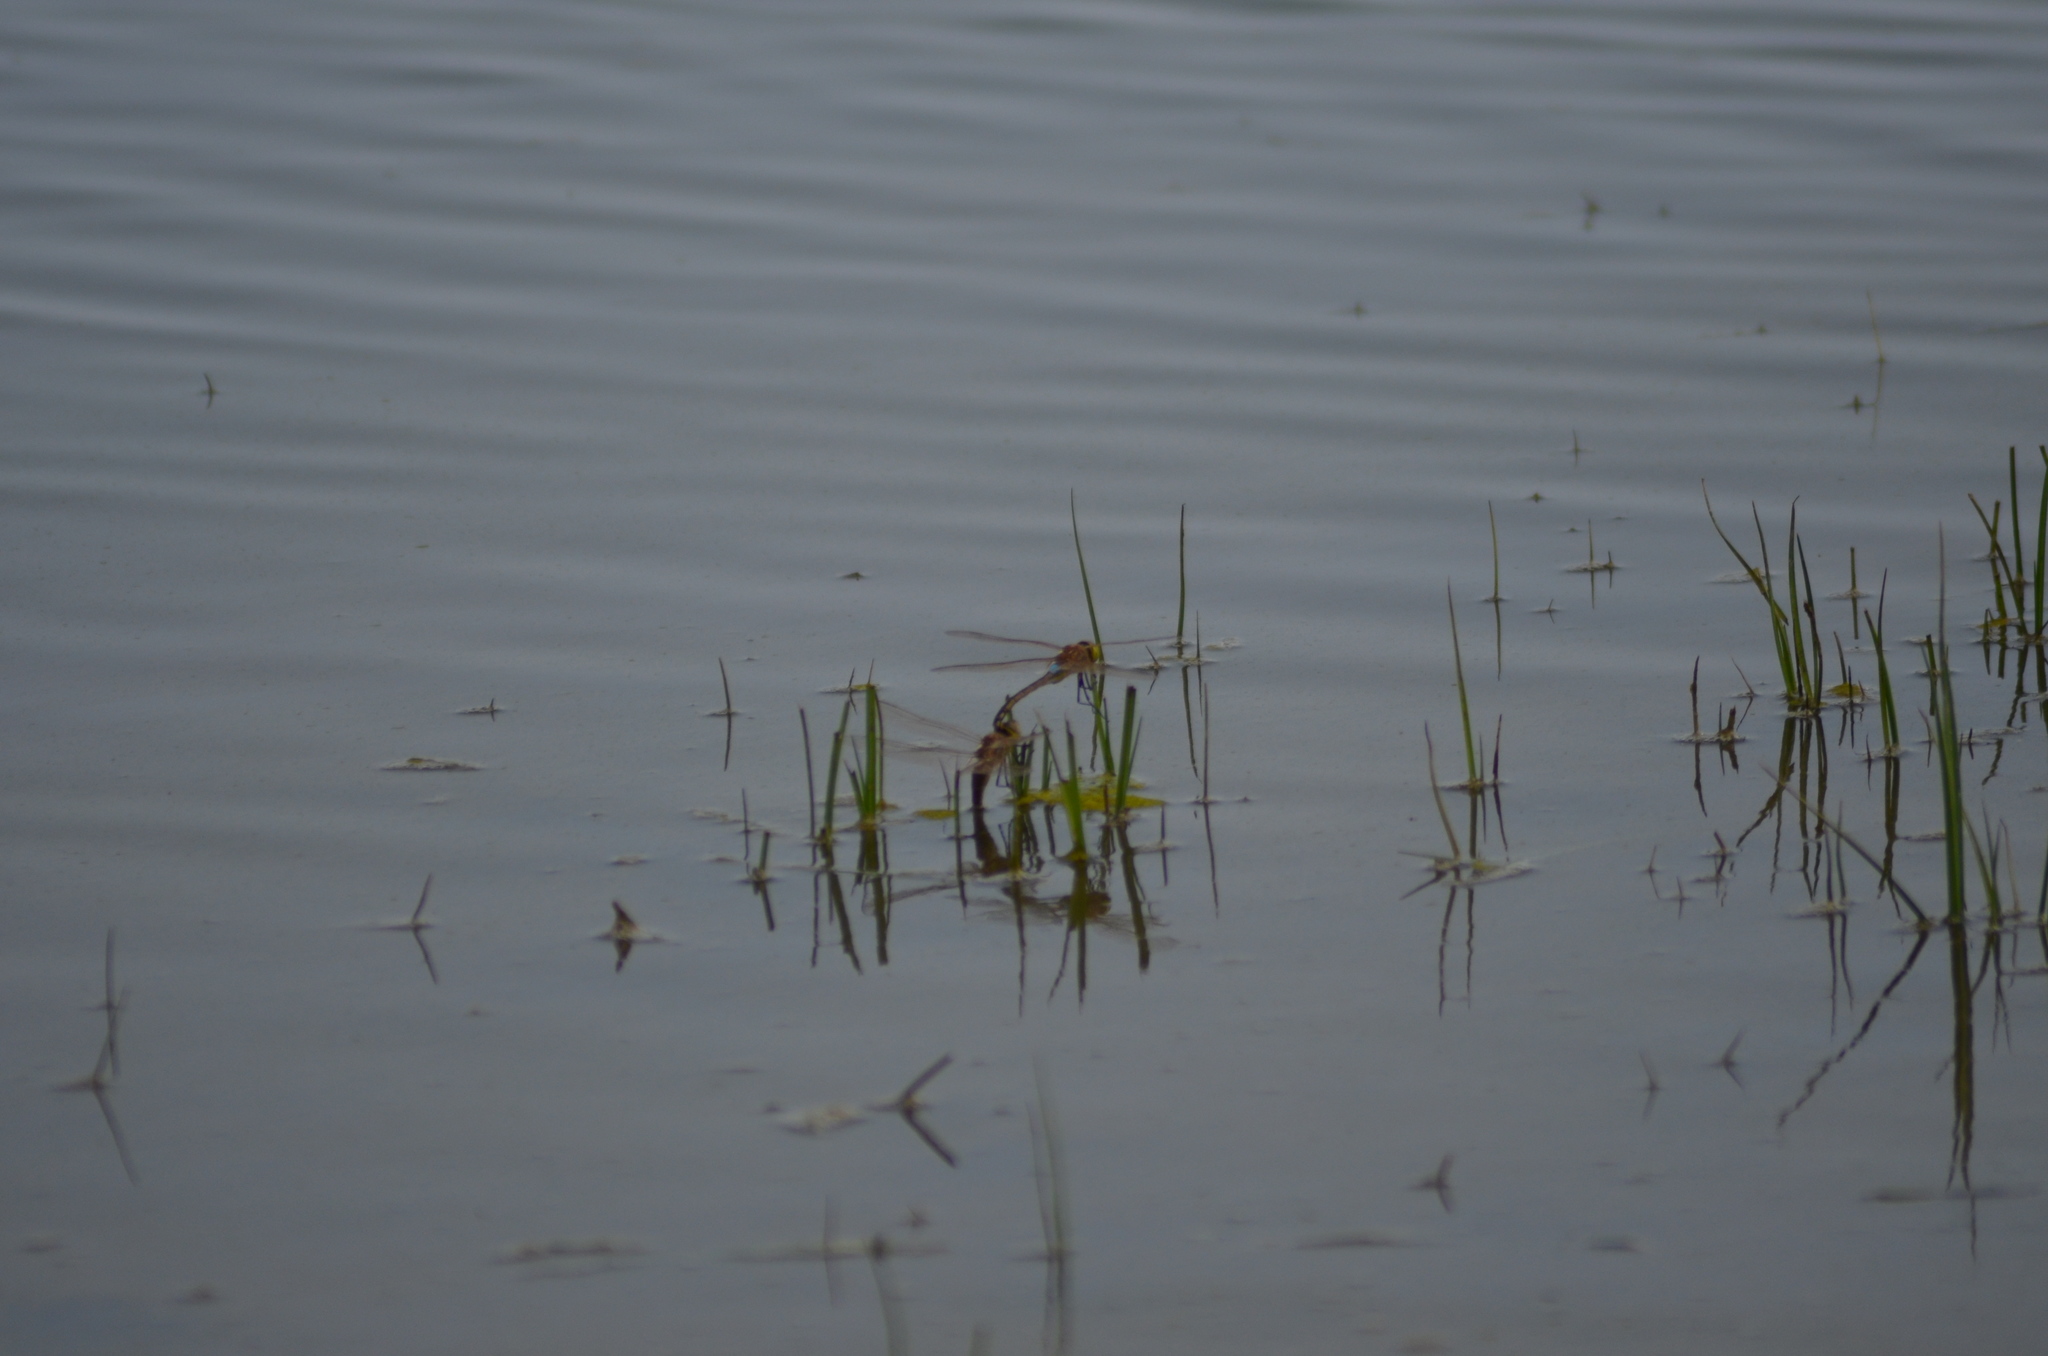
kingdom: Animalia
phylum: Arthropoda
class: Insecta
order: Odonata
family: Aeshnidae
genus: Anax
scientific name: Anax ephippiger
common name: Vagrant emperor
